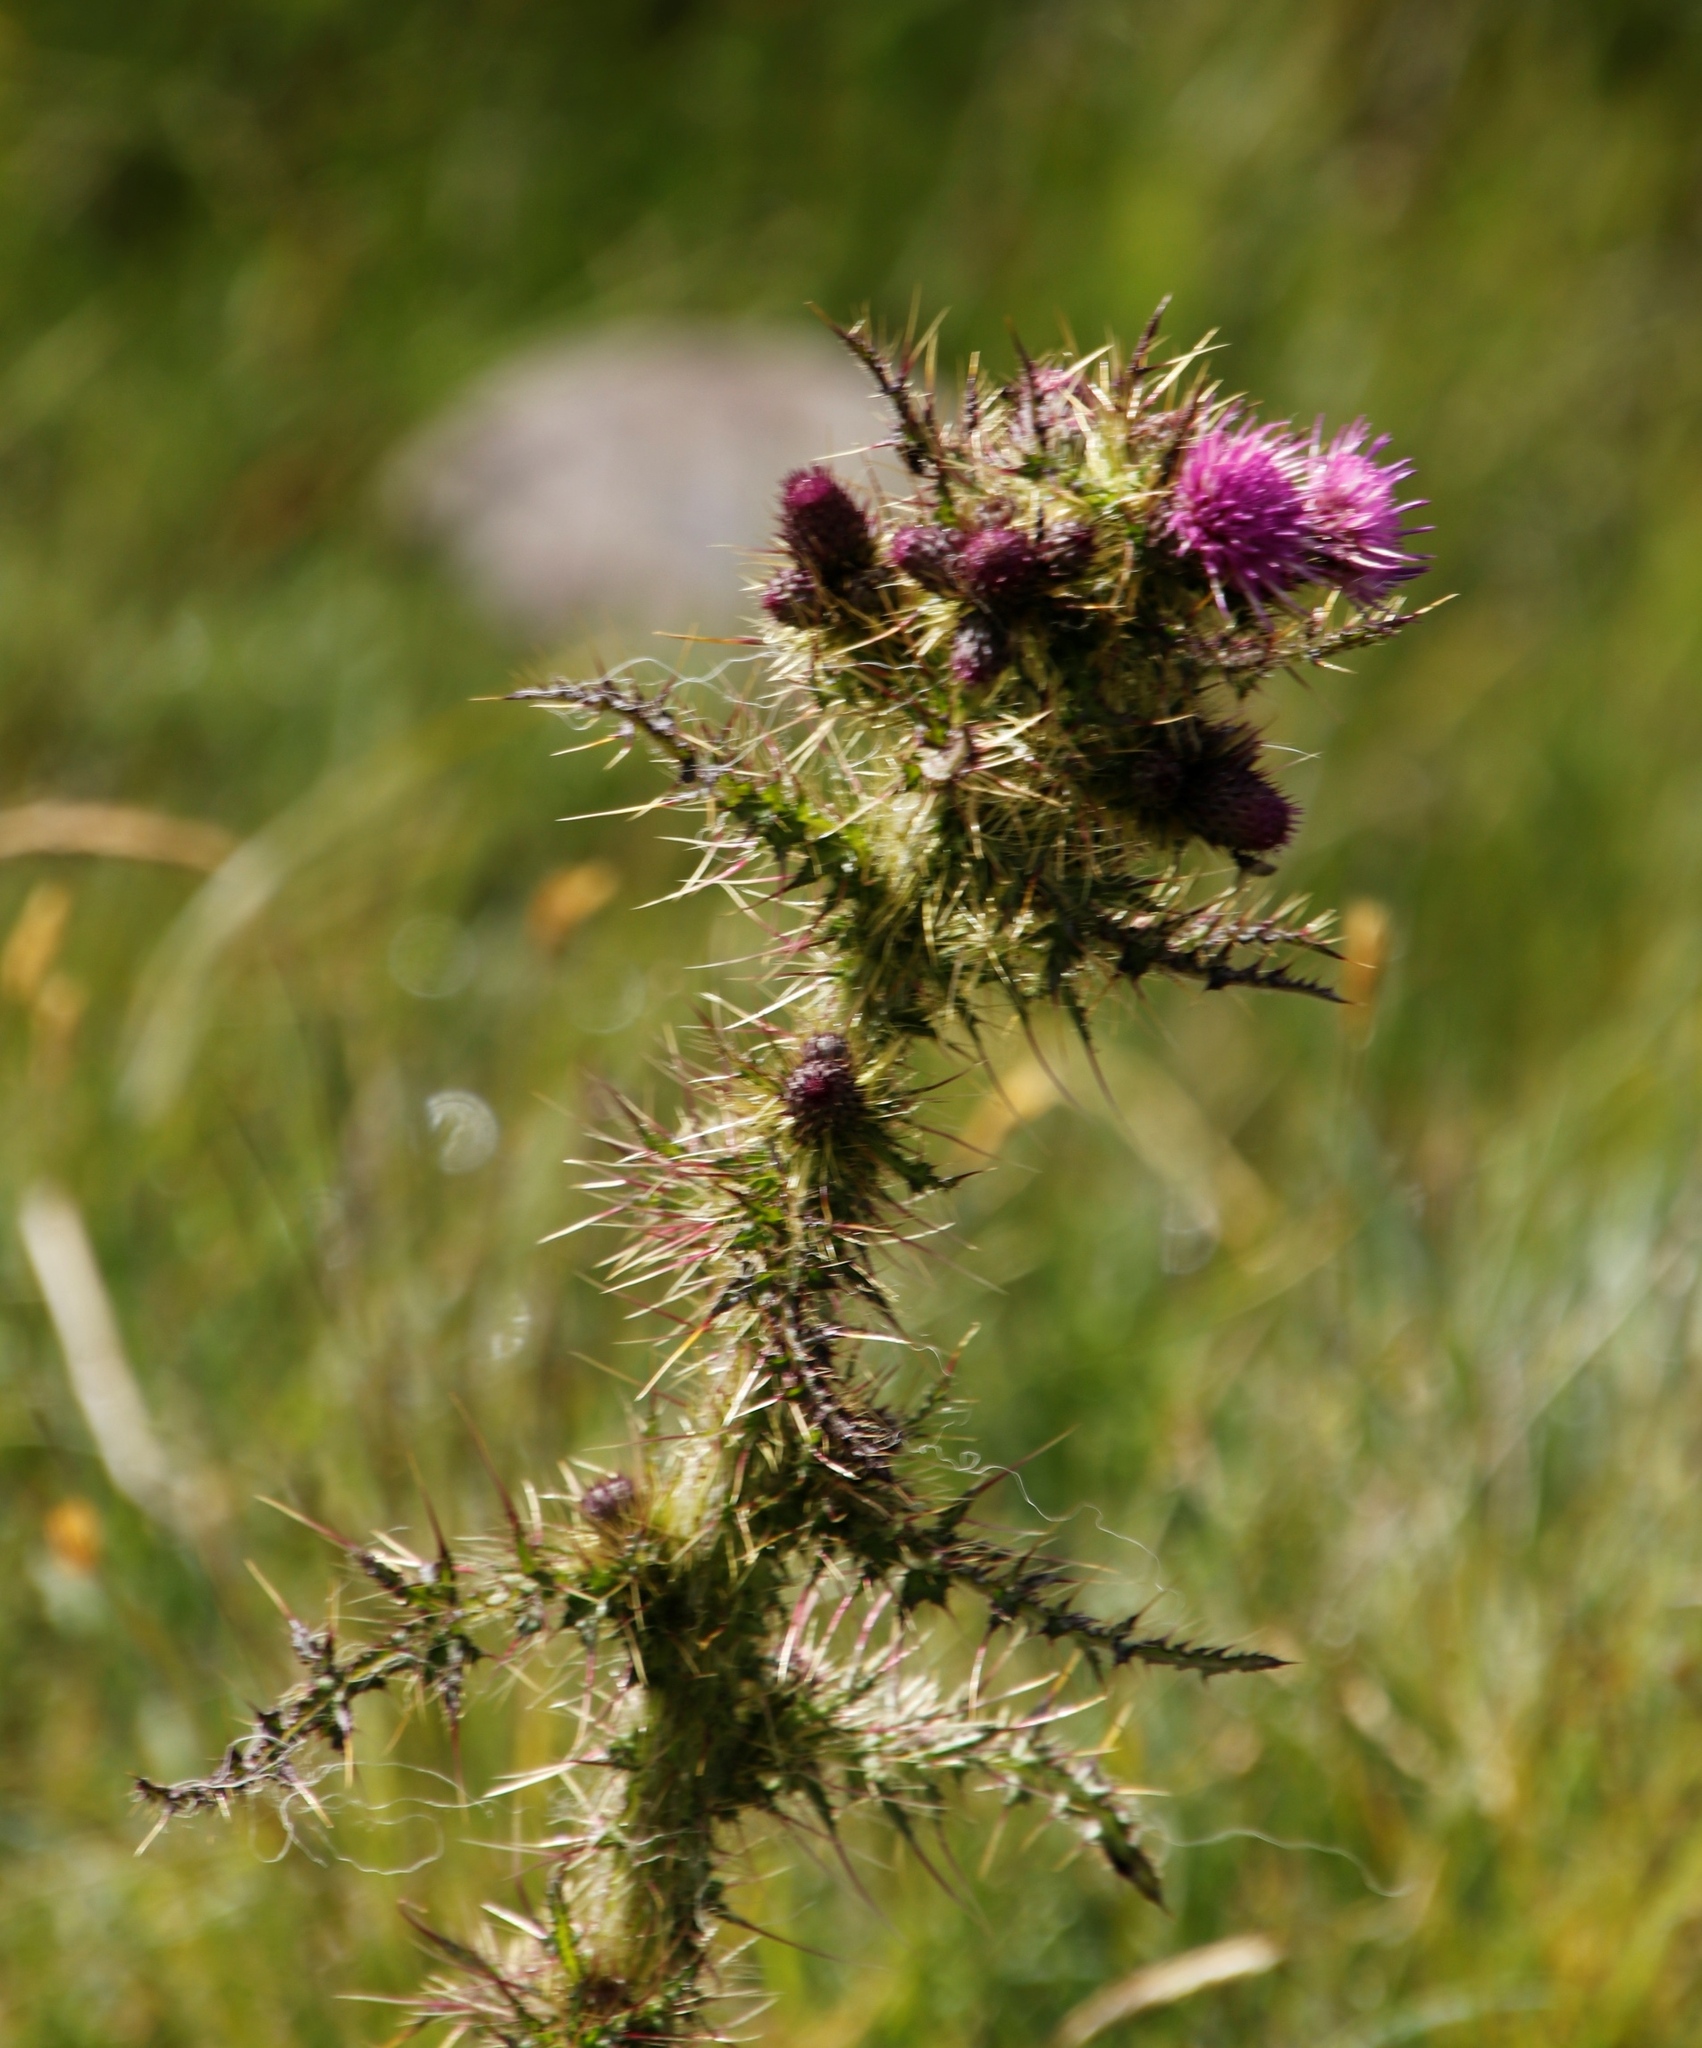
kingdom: Plantae
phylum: Tracheophyta
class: Magnoliopsida
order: Asterales
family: Asteraceae
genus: Cirsium
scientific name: Cirsium palustre
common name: Marsh thistle
